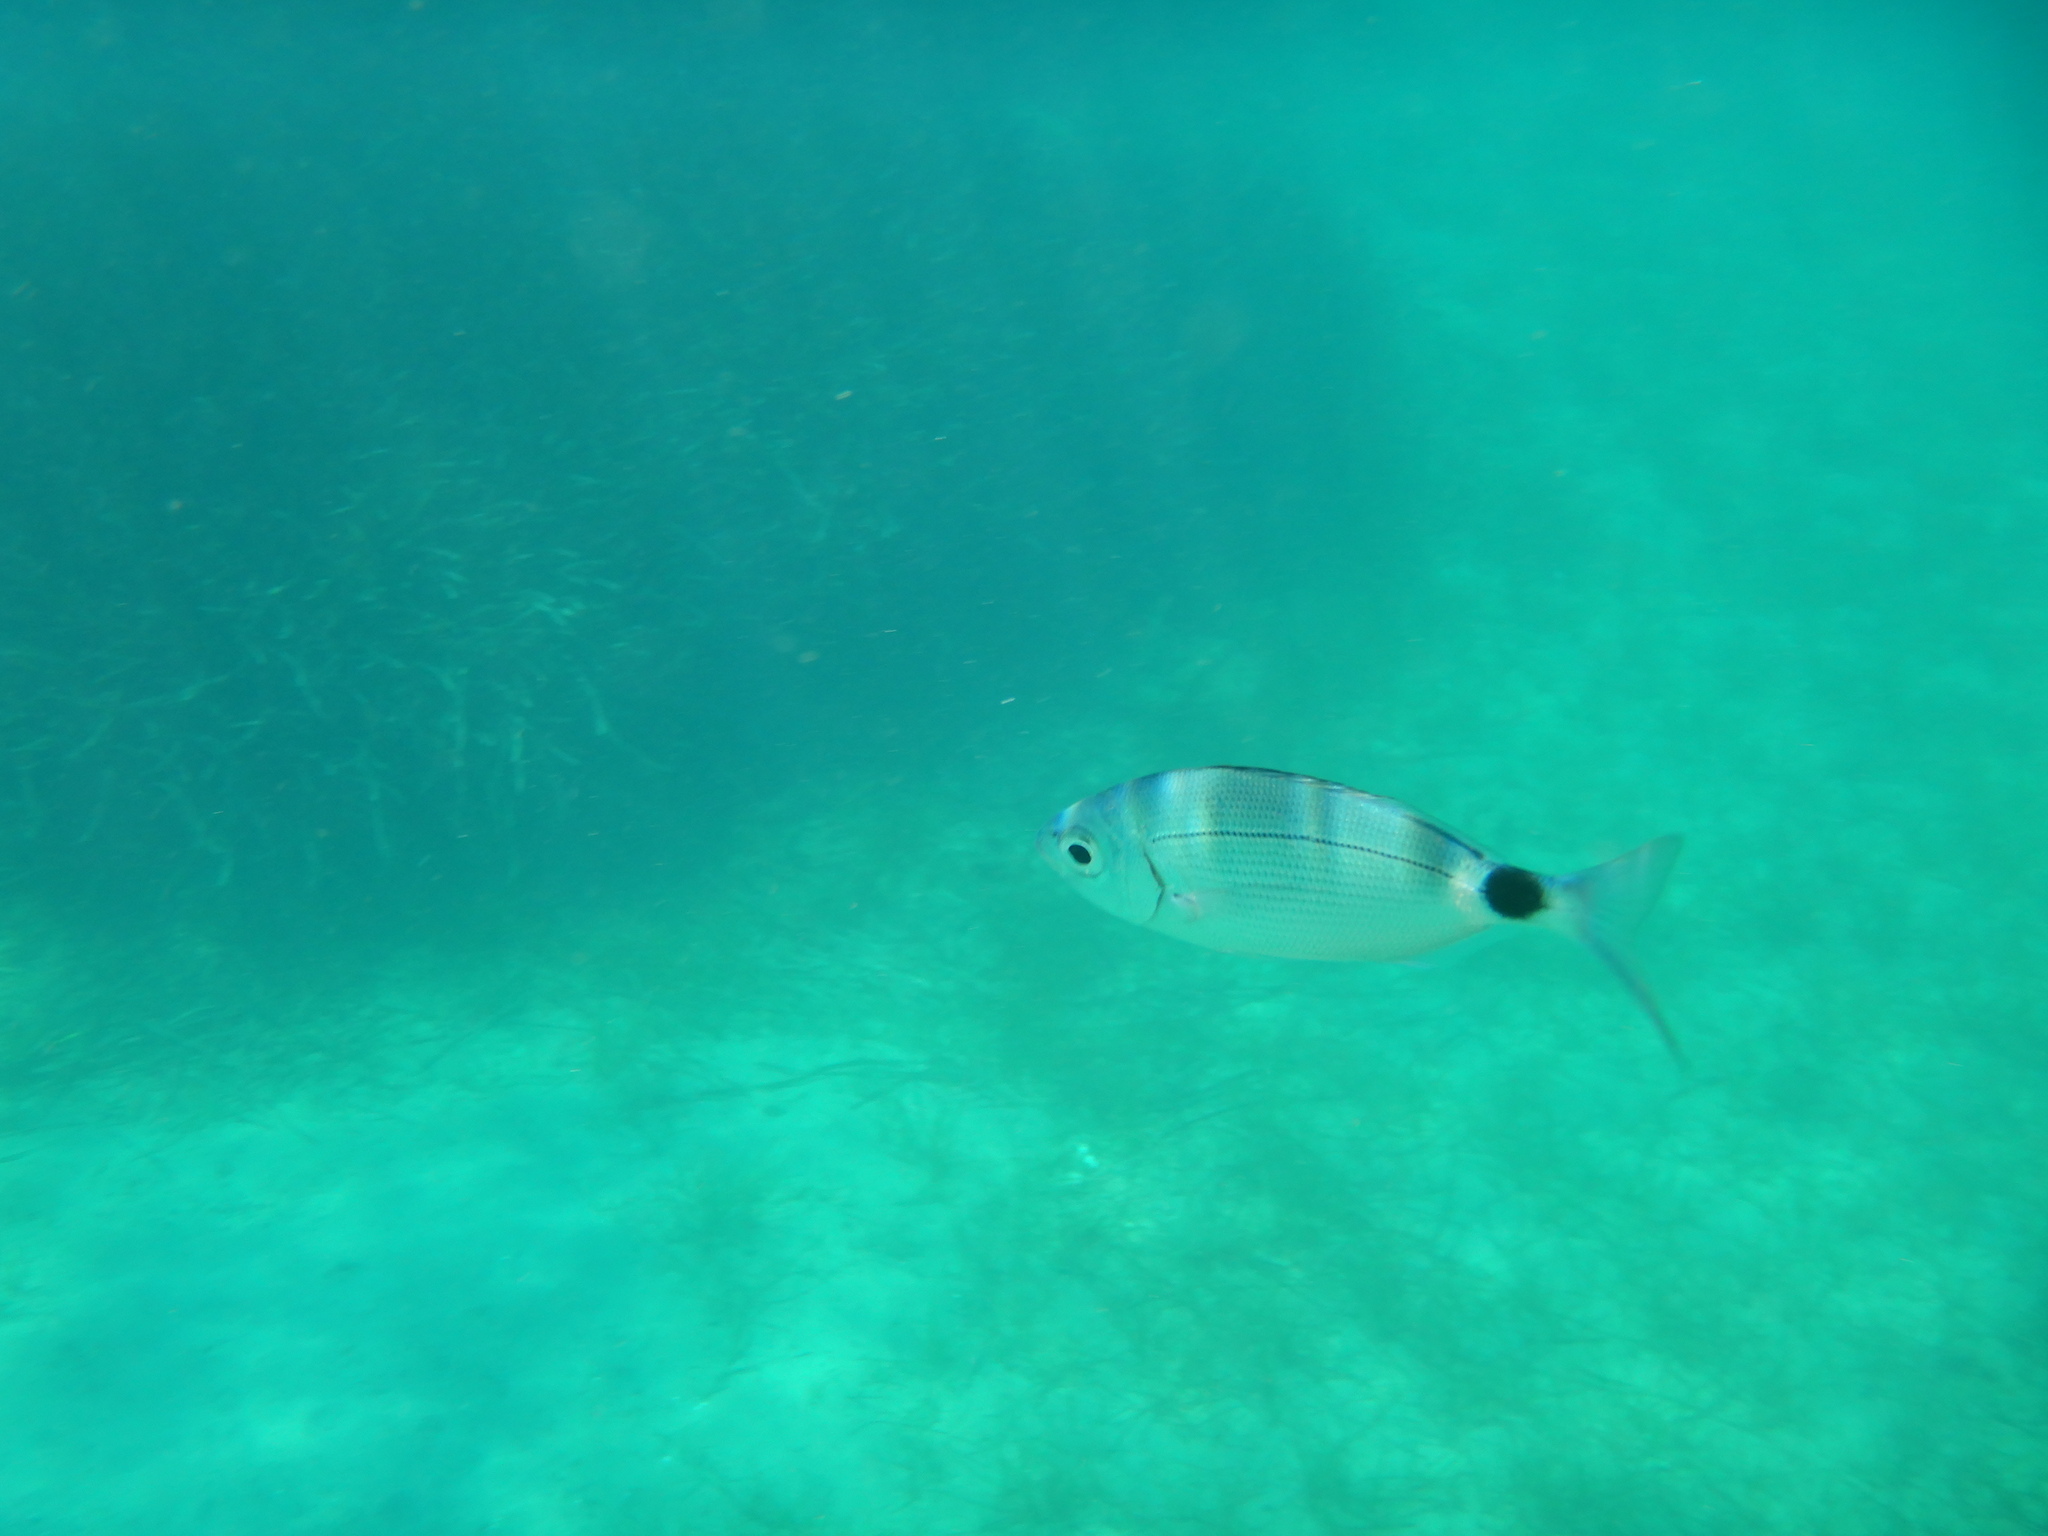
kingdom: Animalia
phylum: Chordata
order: Perciformes
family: Sparidae
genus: Oblada
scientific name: Oblada melanura
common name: Saddled seabream
